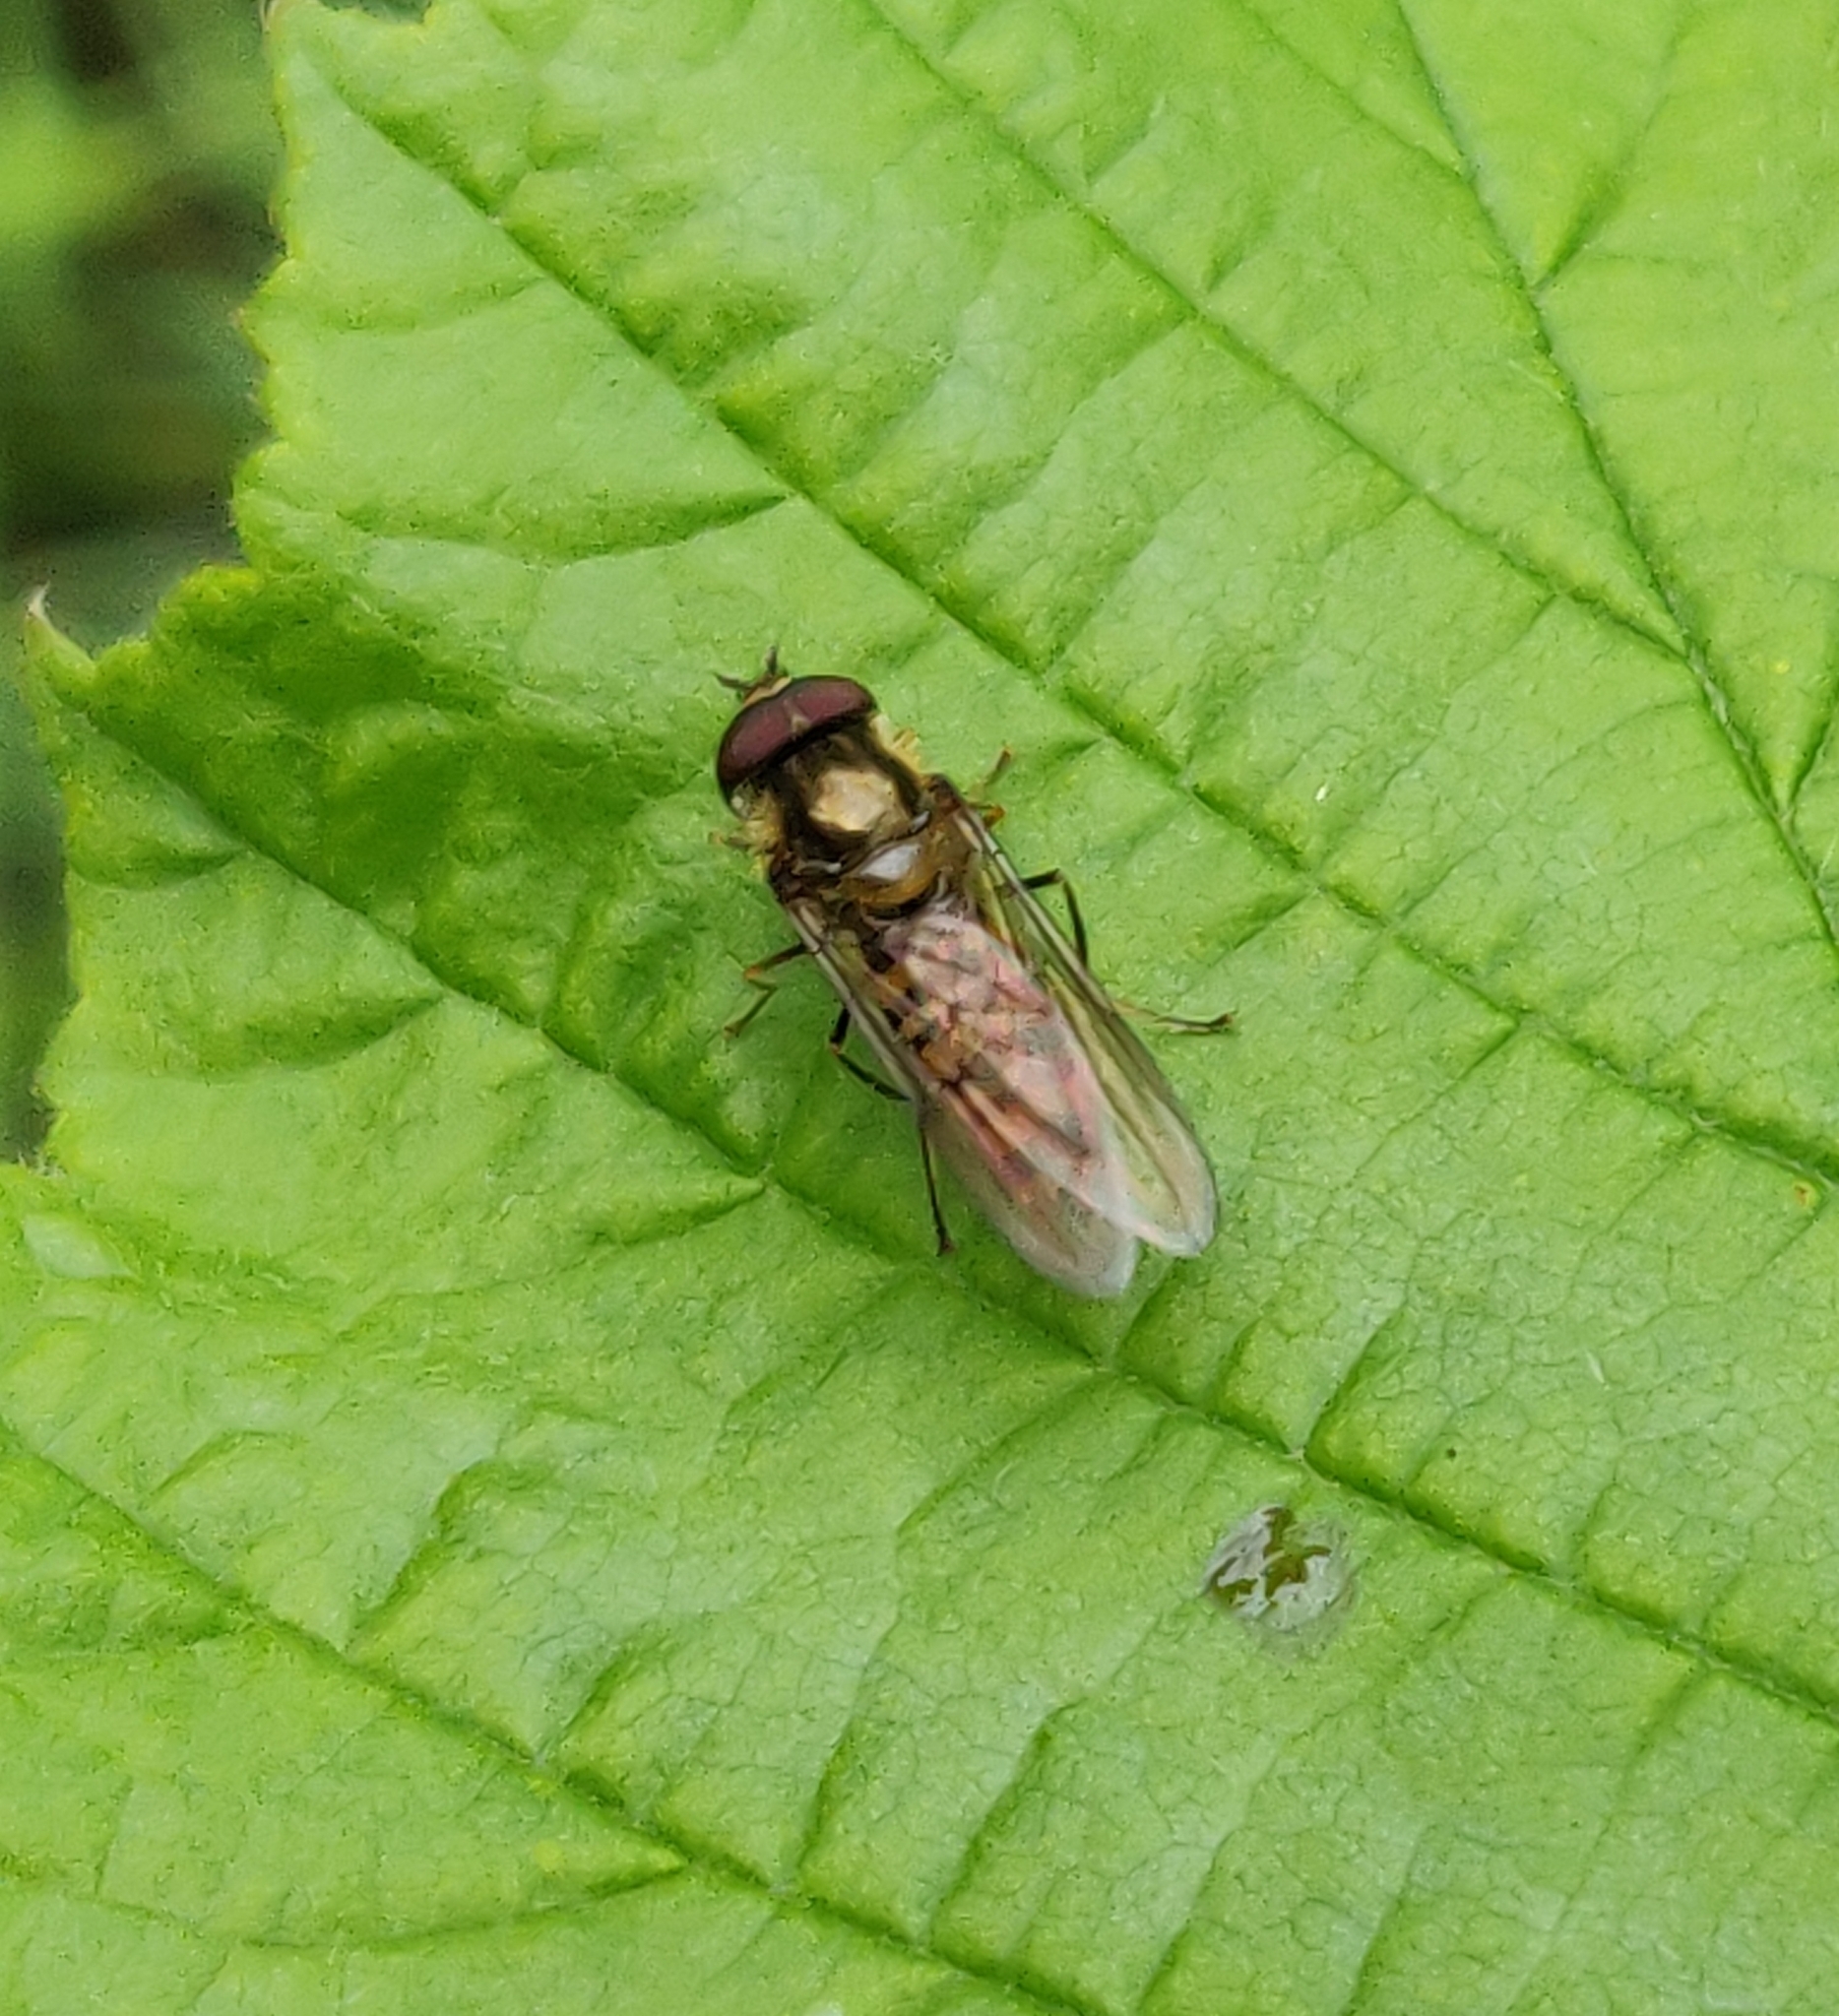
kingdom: Animalia
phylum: Arthropoda
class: Insecta
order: Diptera
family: Syrphidae
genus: Episyrphus
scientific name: Episyrphus balteatus
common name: Marmalade hoverfly
